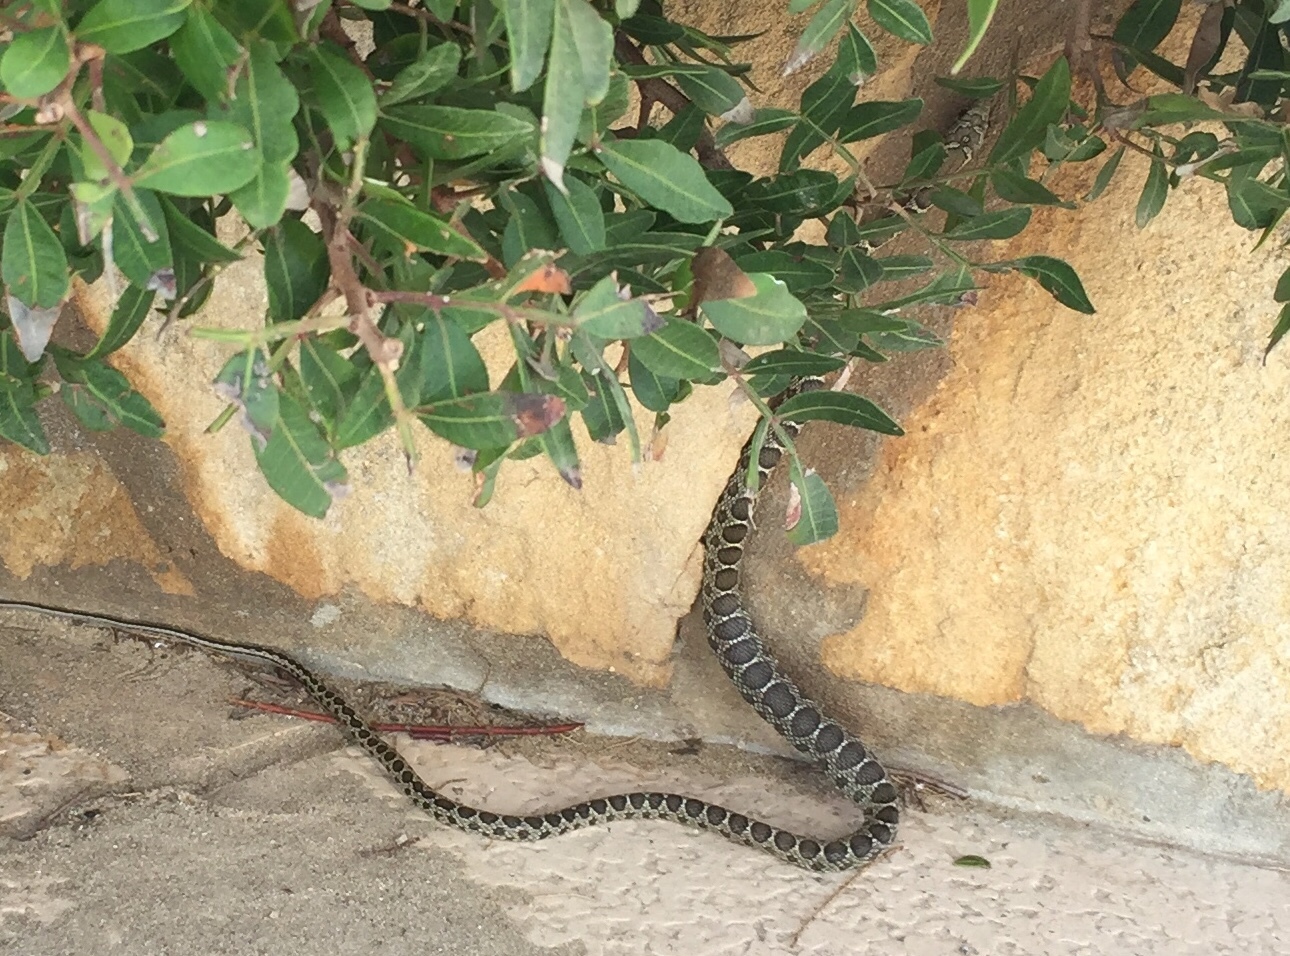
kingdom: Animalia
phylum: Chordata
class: Squamata
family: Colubridae
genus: Hemorrhois
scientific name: Hemorrhois hippocrepis
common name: Horseshoe whip snake
